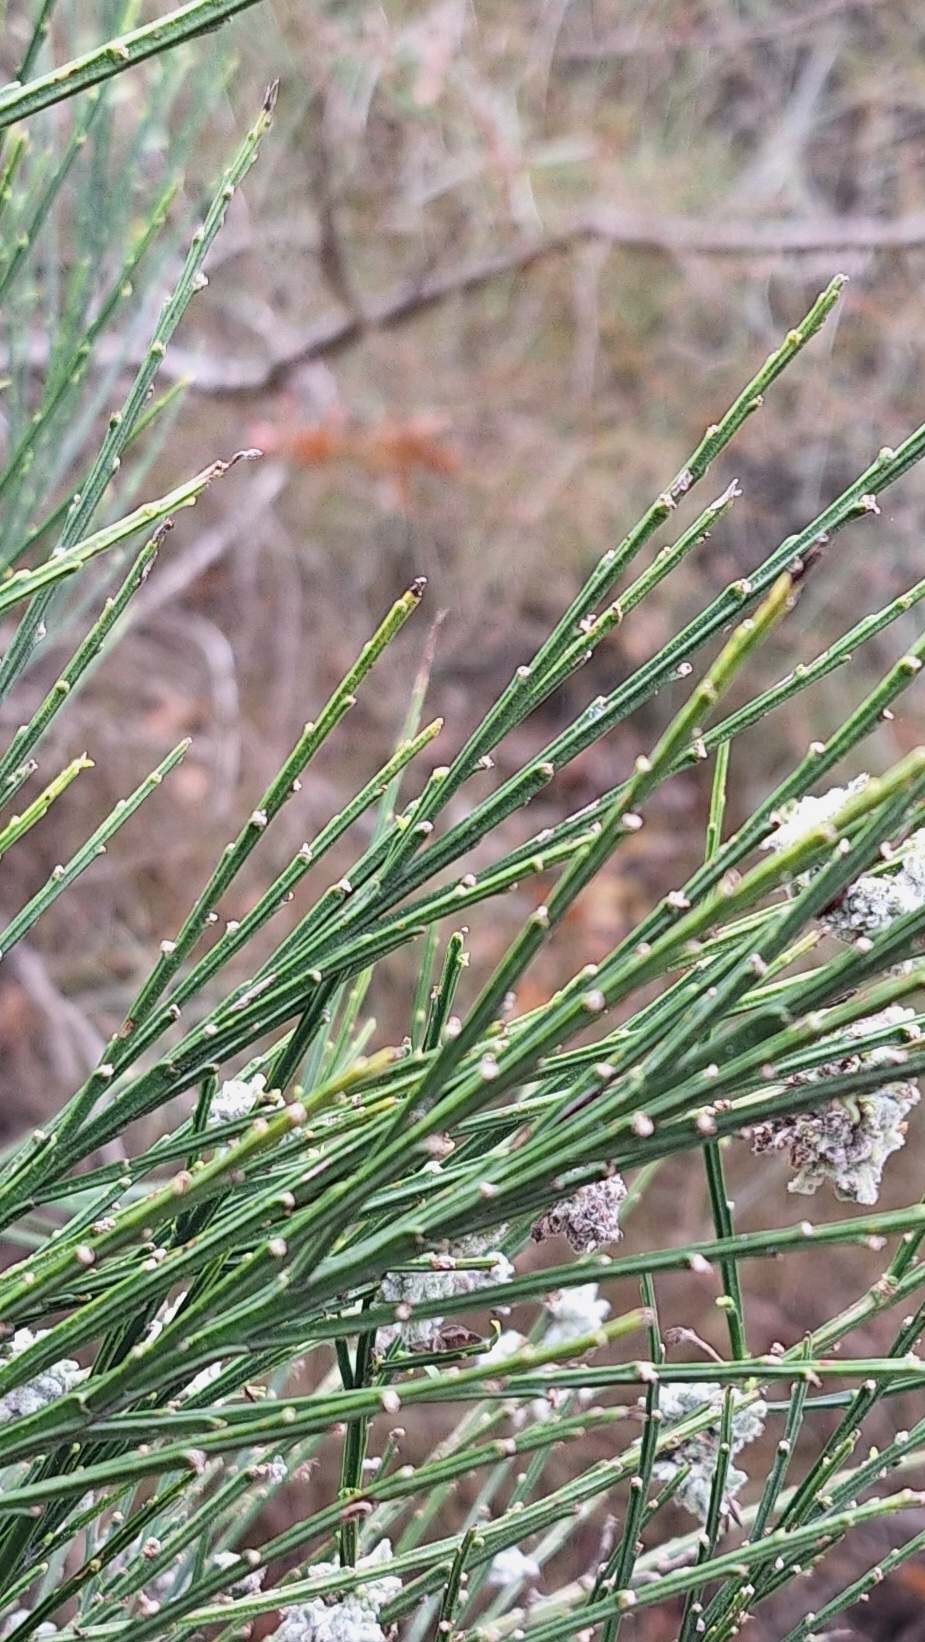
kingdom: Plantae
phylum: Tracheophyta
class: Magnoliopsida
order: Fabales
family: Fabaceae
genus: Cytisus
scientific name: Cytisus scoparius
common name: Scotch broom
